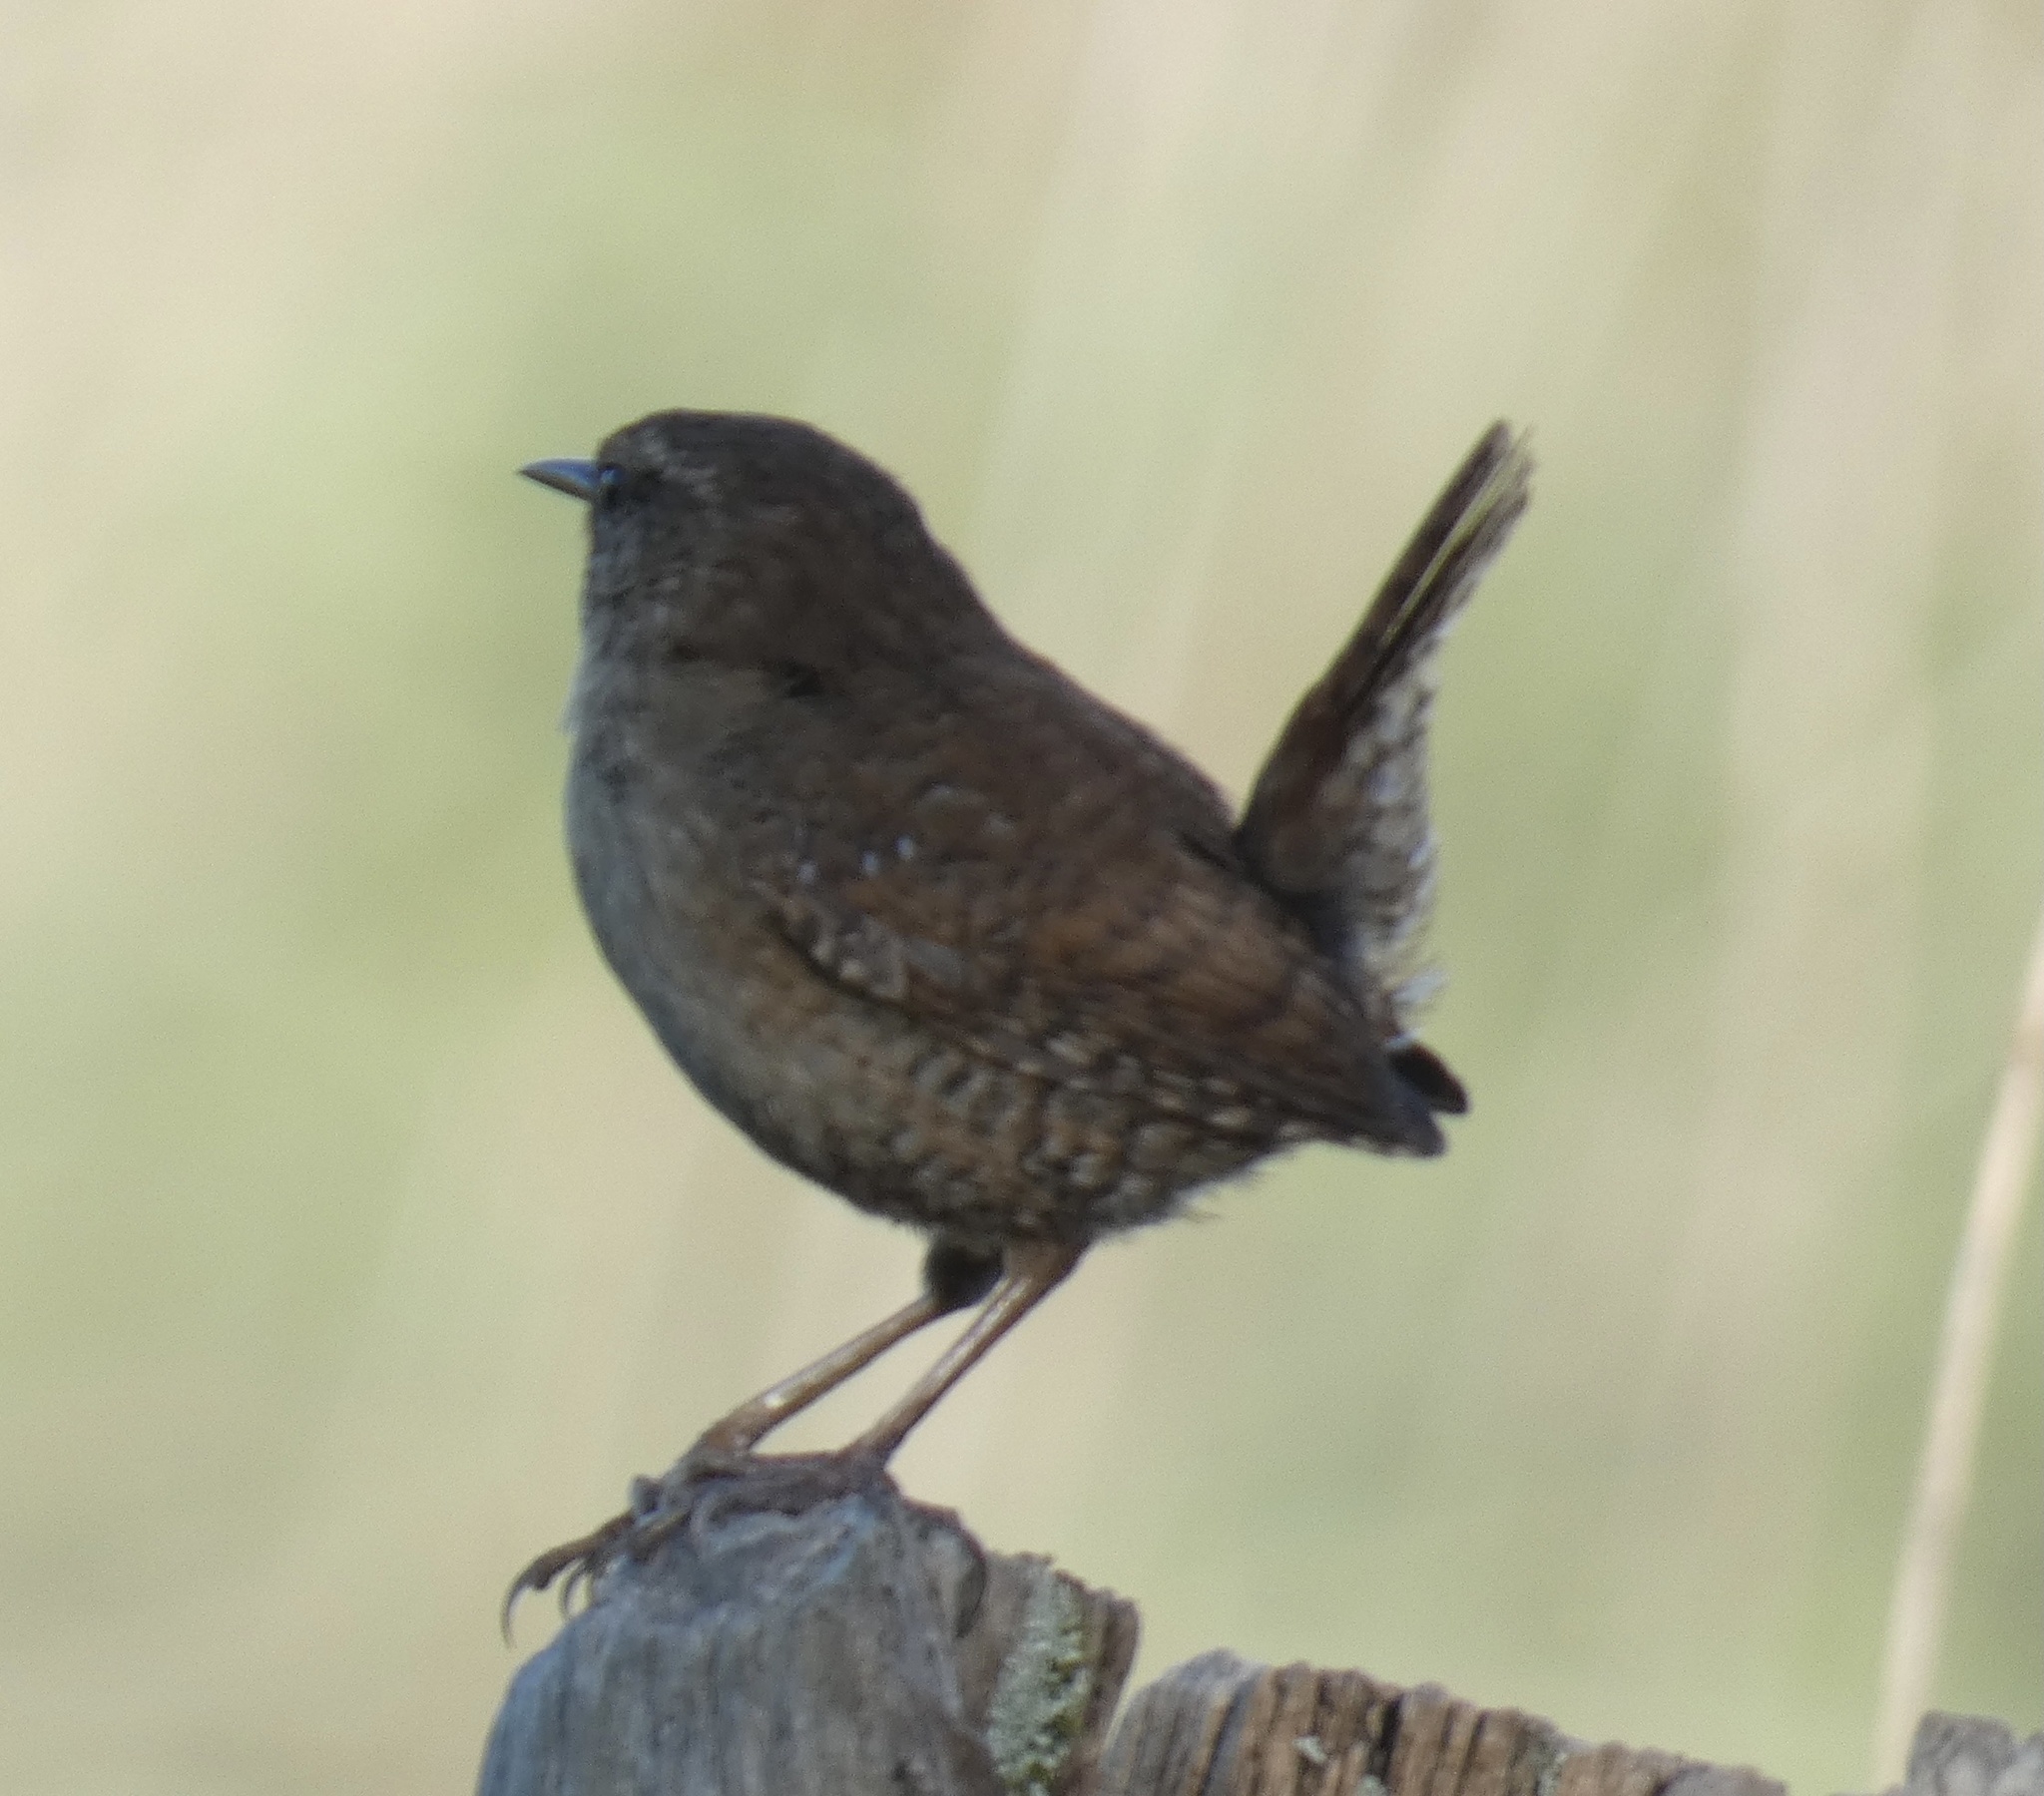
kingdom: Animalia
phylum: Chordata
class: Aves
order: Passeriformes
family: Troglodytidae
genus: Troglodytes
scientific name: Troglodytes troglodytes
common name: Eurasian wren
